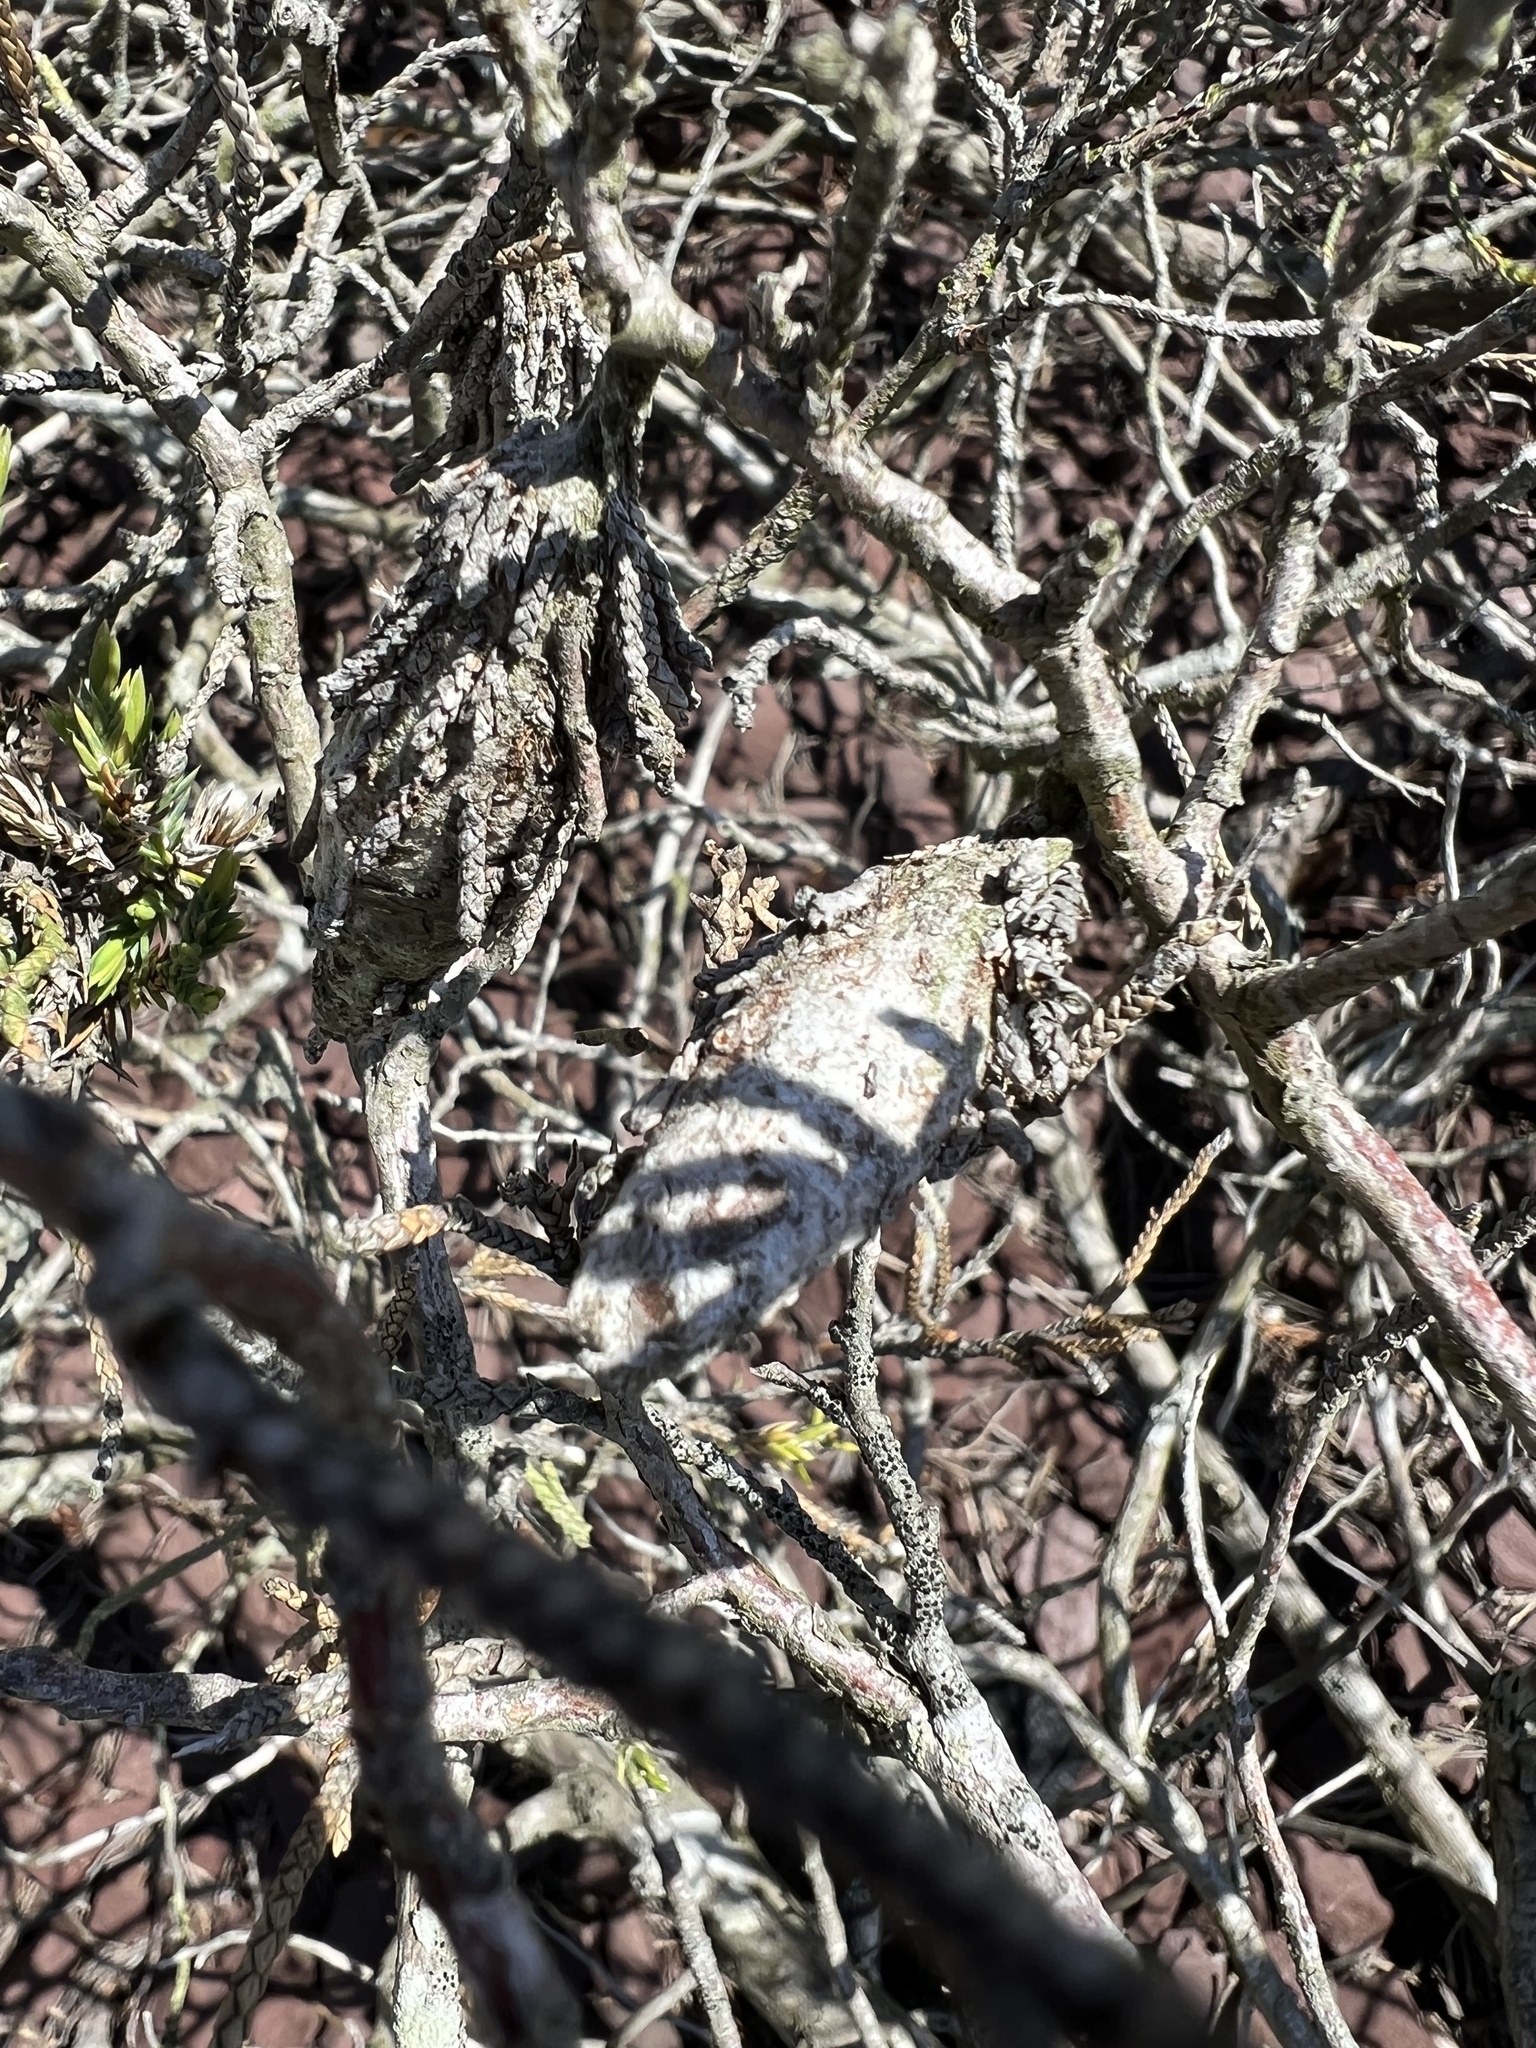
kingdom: Animalia
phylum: Arthropoda
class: Insecta
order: Lepidoptera
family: Psychidae
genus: Thyridopteryx
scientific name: Thyridopteryx ephemeraeformis
